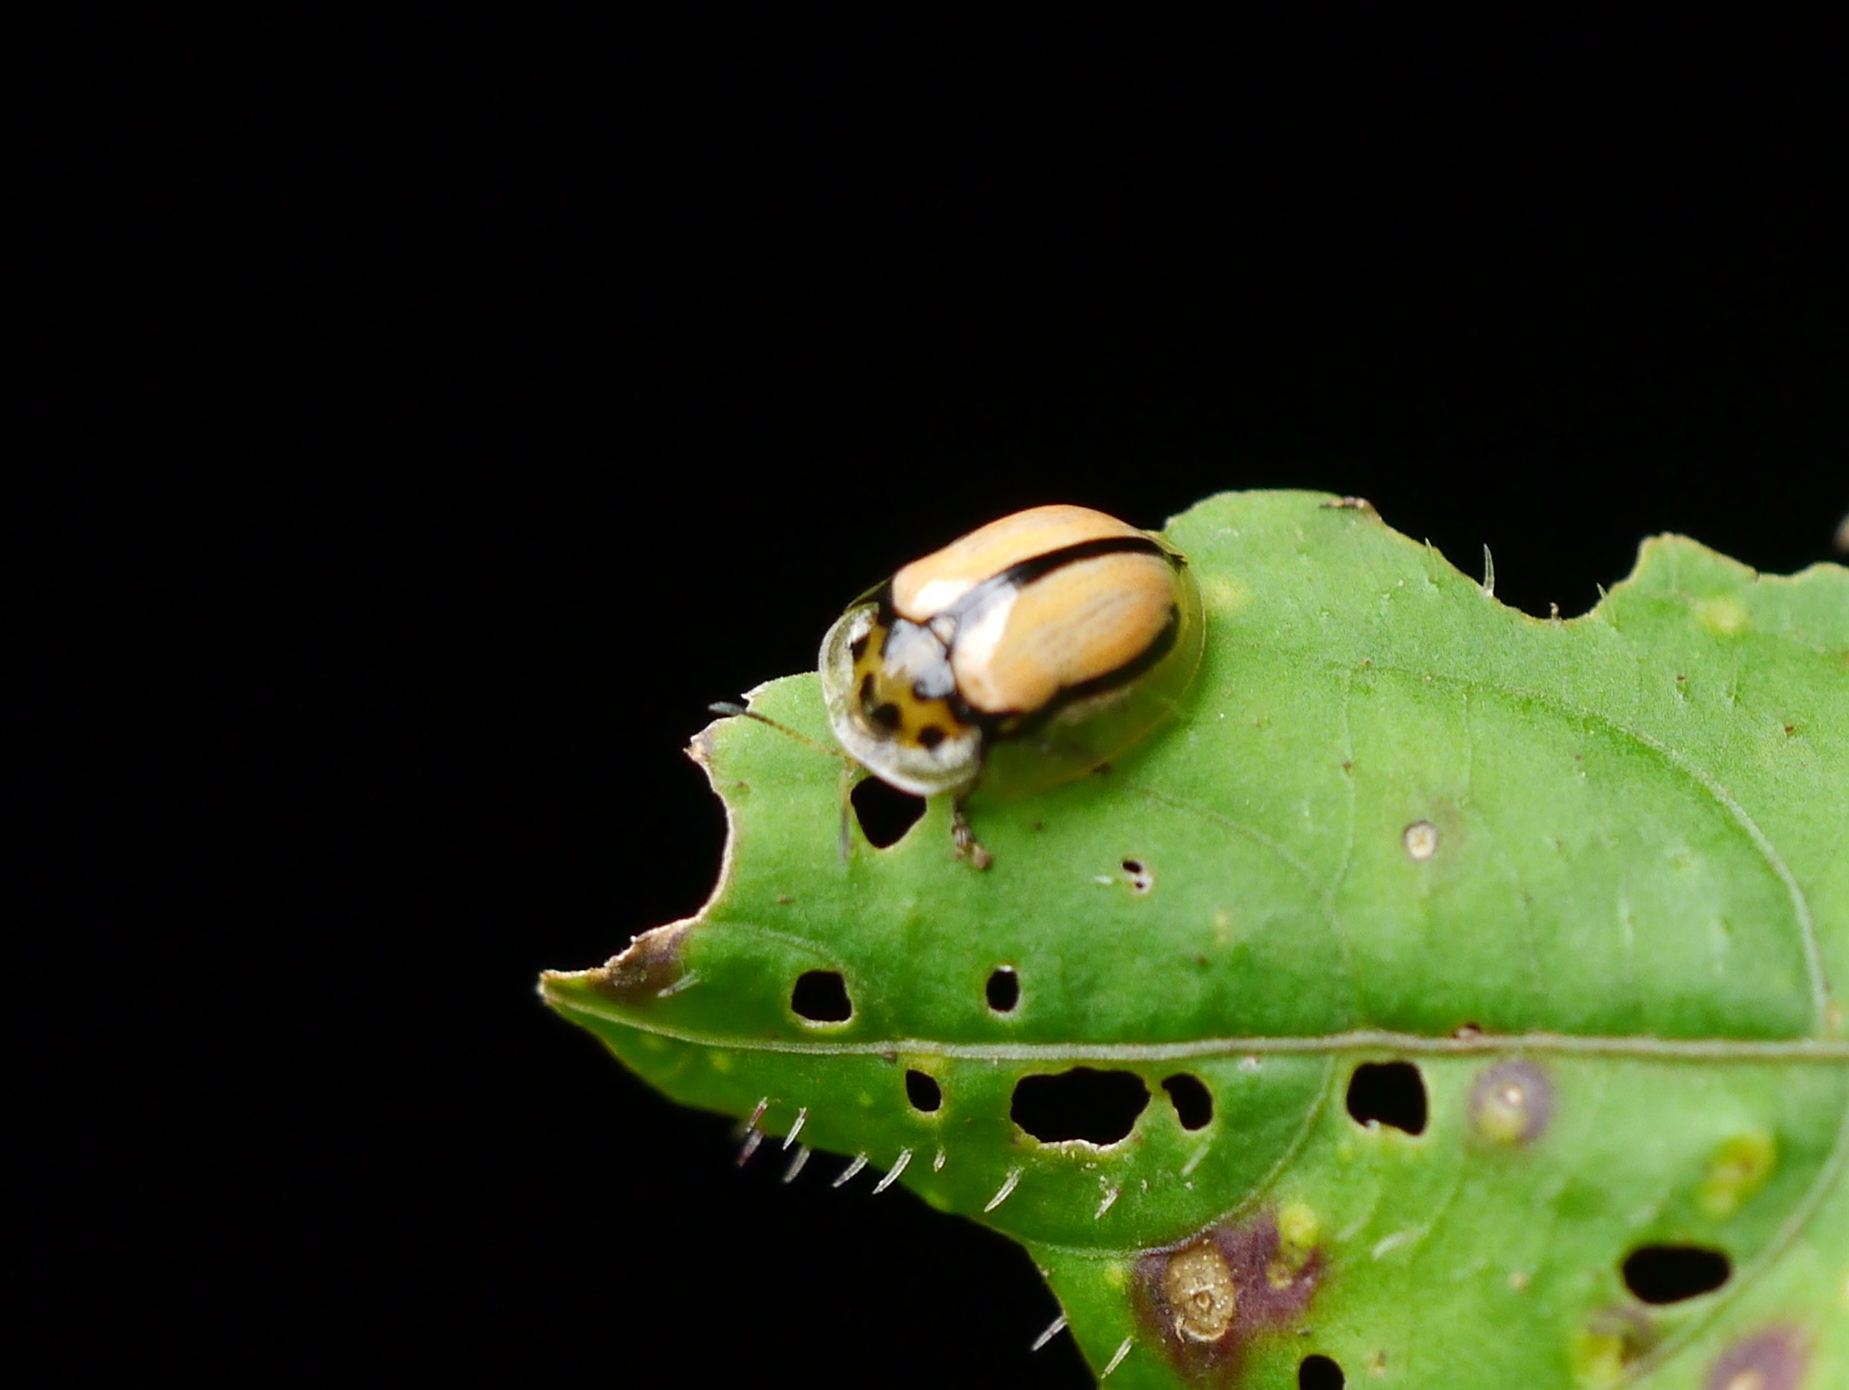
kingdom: Animalia
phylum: Arthropoda
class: Insecta
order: Coleoptera
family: Chrysomelidae
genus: Aethiopocassis
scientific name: Aethiopocassis cinctidorsum
